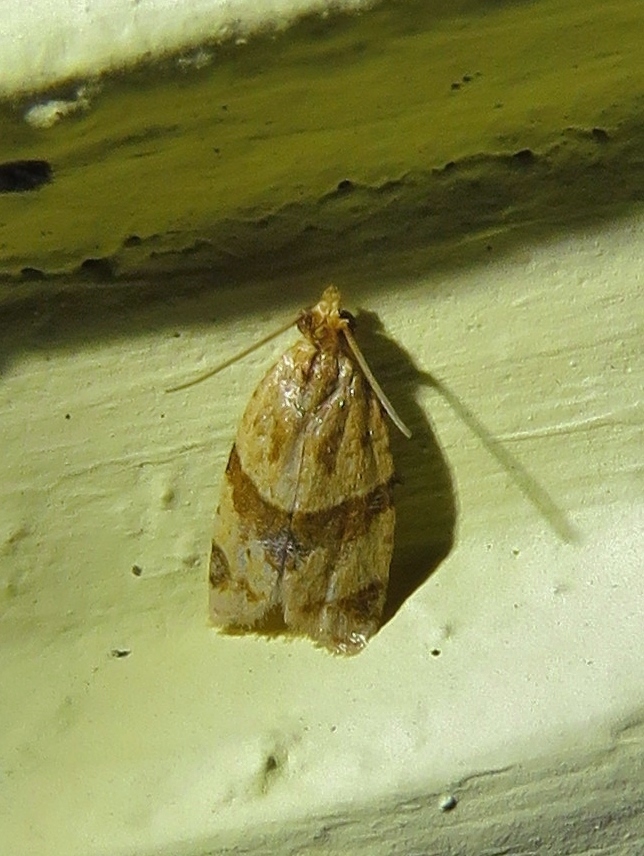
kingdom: Animalia
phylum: Arthropoda
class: Insecta
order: Lepidoptera
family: Tortricidae
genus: Clepsis
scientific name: Clepsis peritana
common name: Garden tortrix
